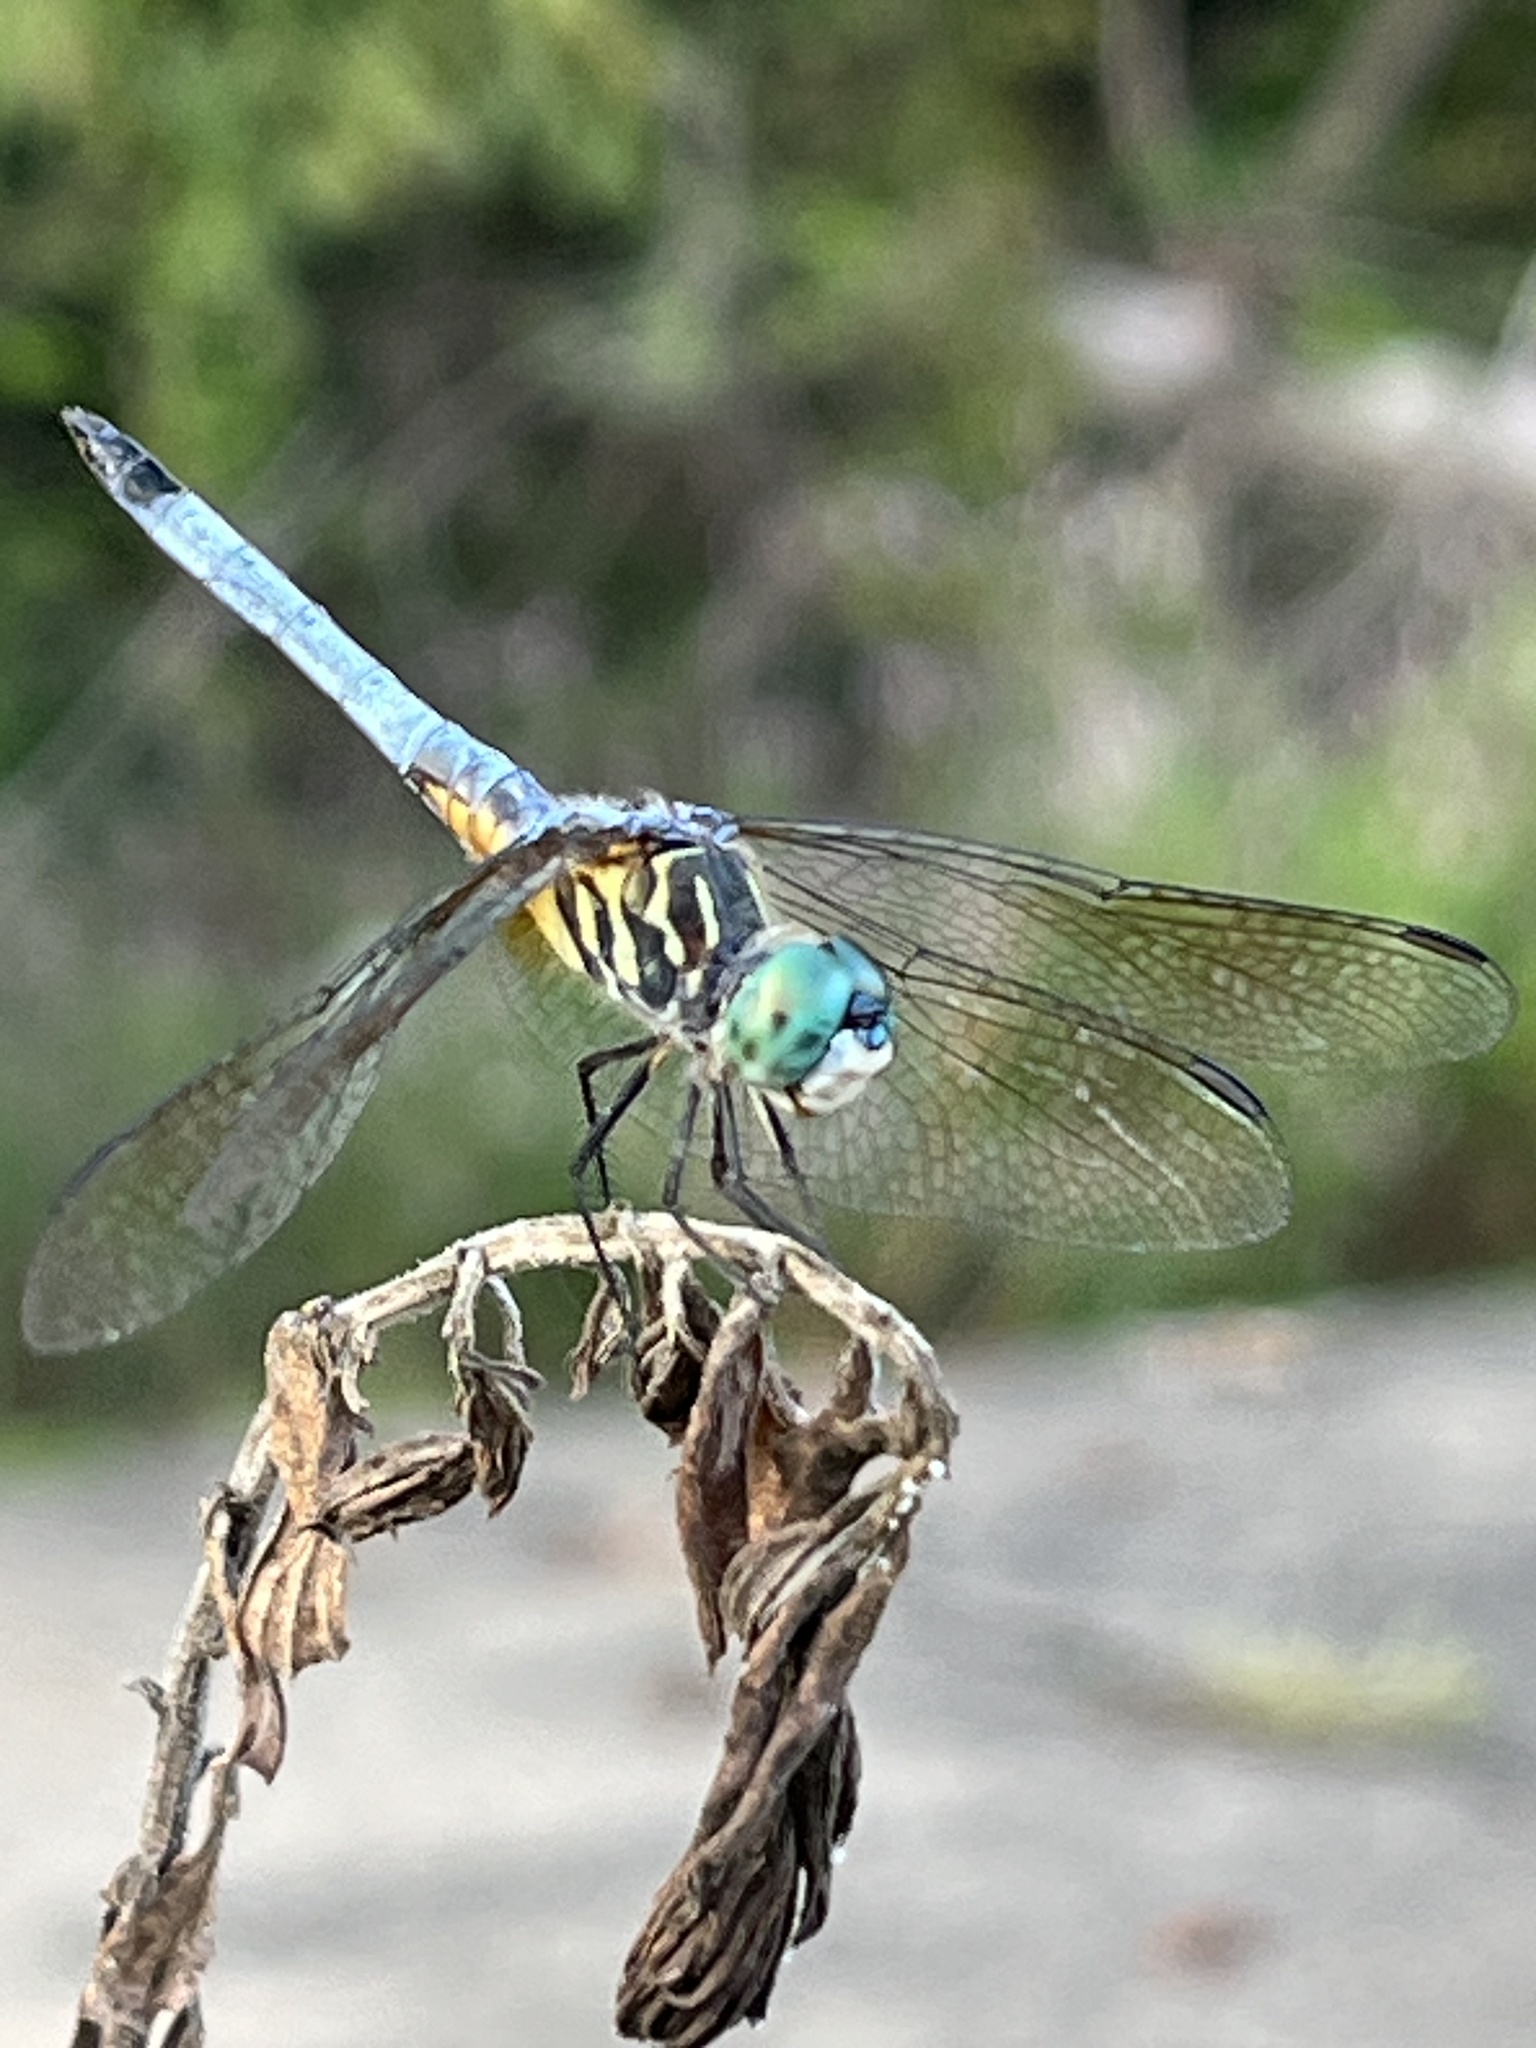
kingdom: Animalia
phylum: Arthropoda
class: Insecta
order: Odonata
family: Libellulidae
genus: Pachydiplax
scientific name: Pachydiplax longipennis
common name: Blue dasher
